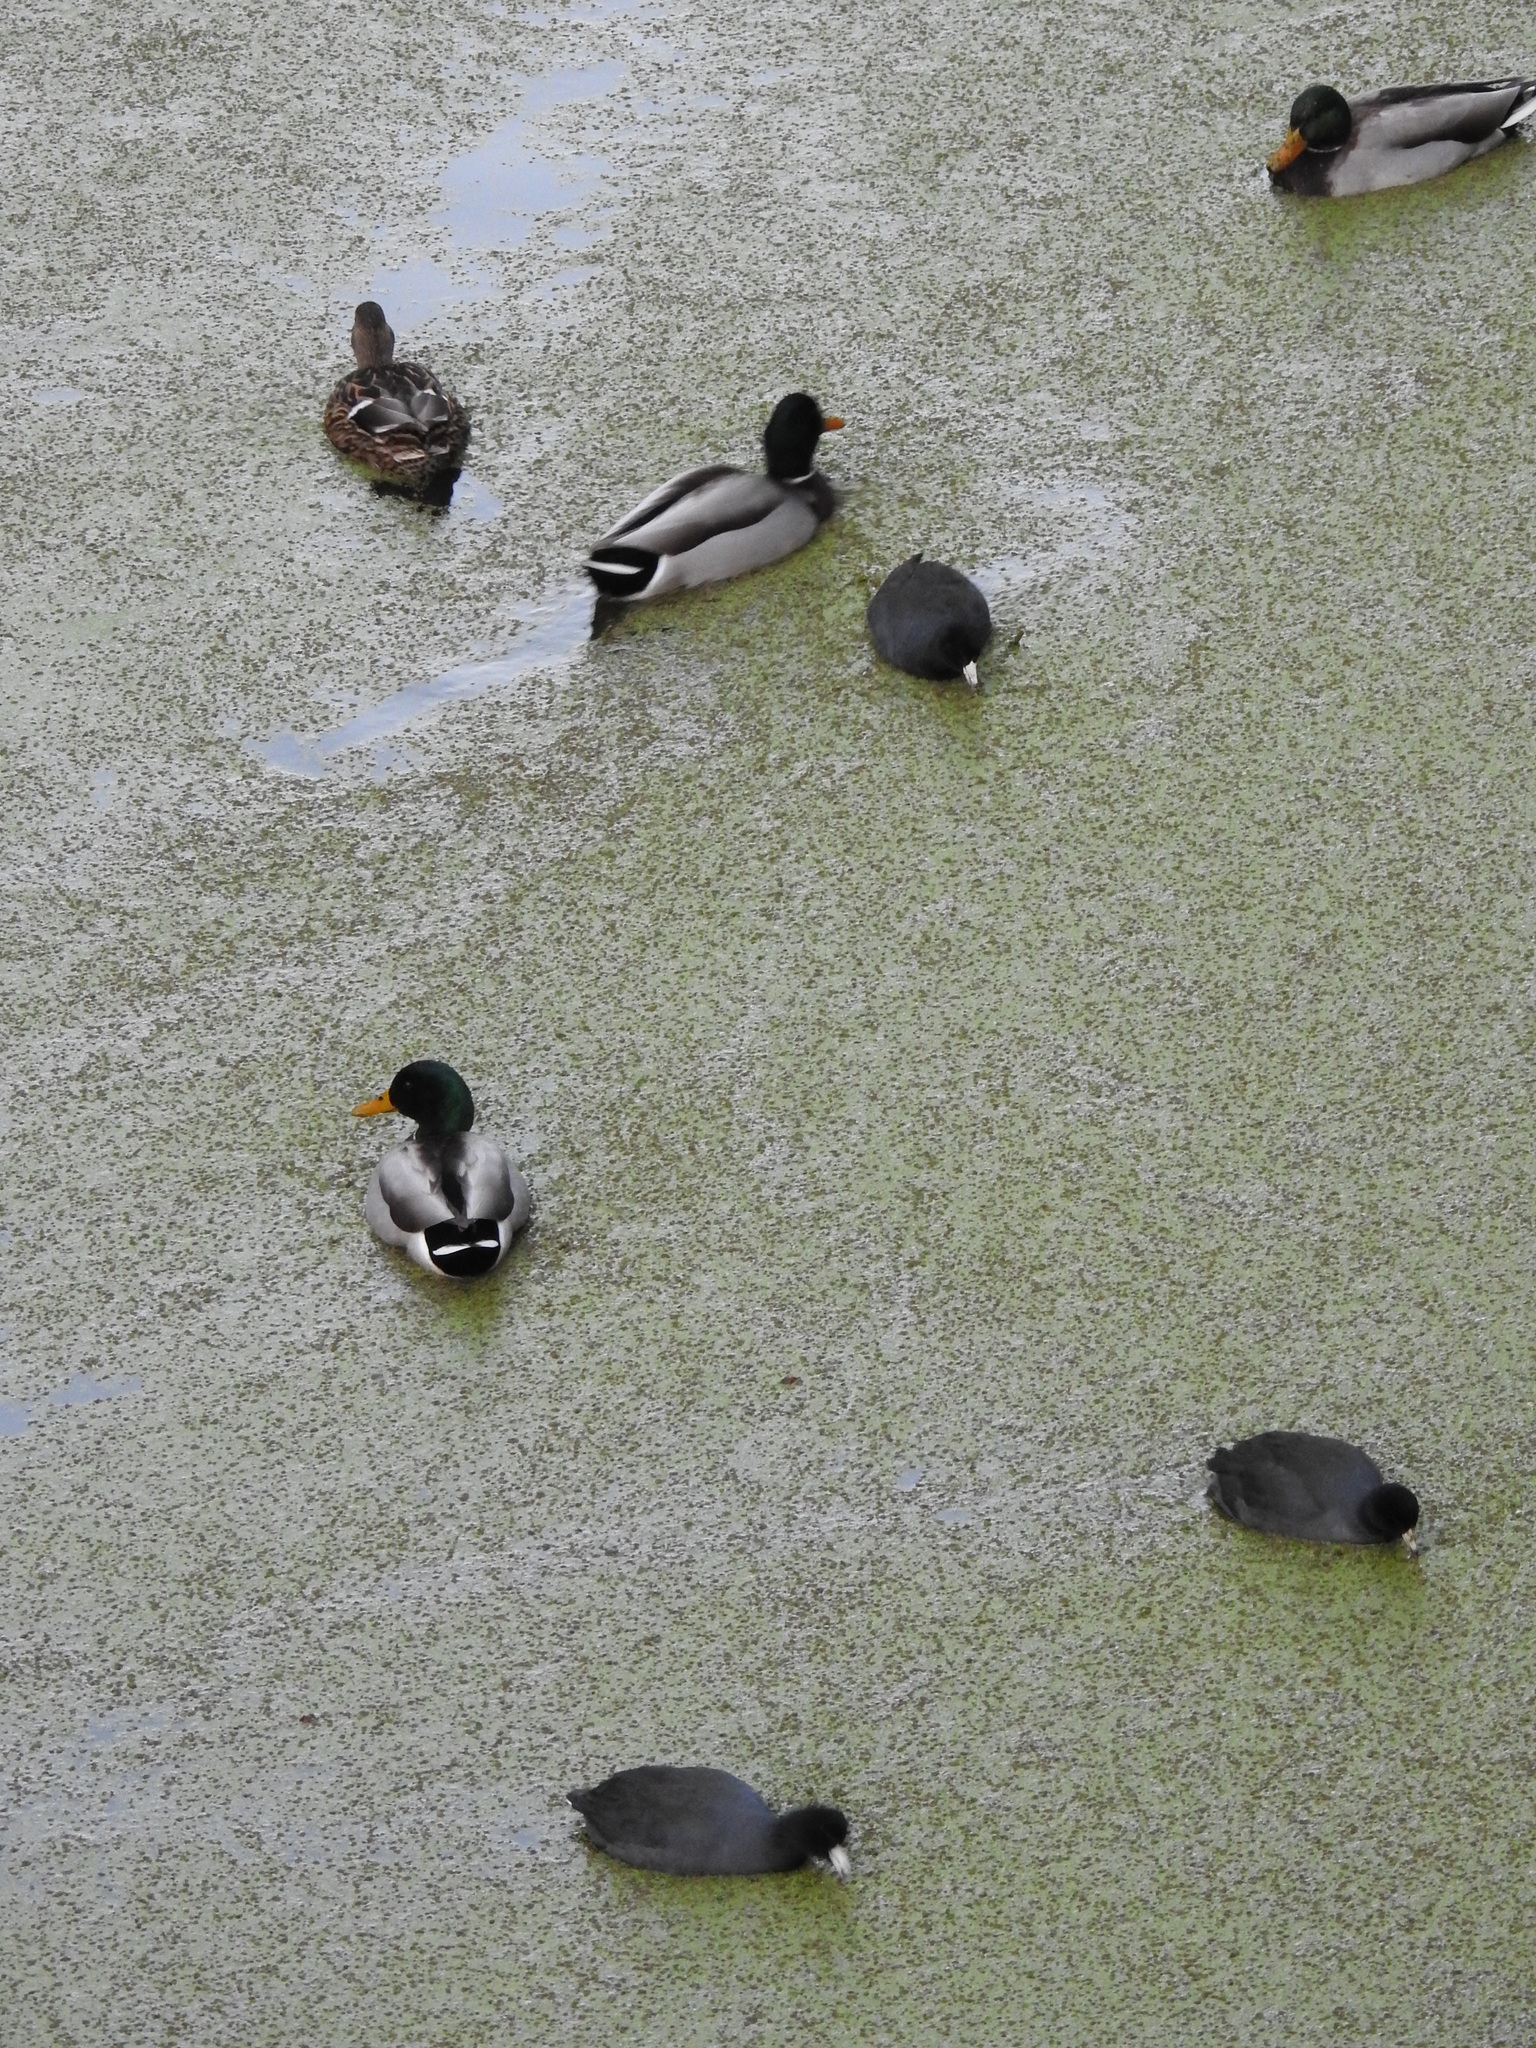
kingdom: Animalia
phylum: Chordata
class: Aves
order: Gruiformes
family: Rallidae
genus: Fulica
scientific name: Fulica americana
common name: American coot
